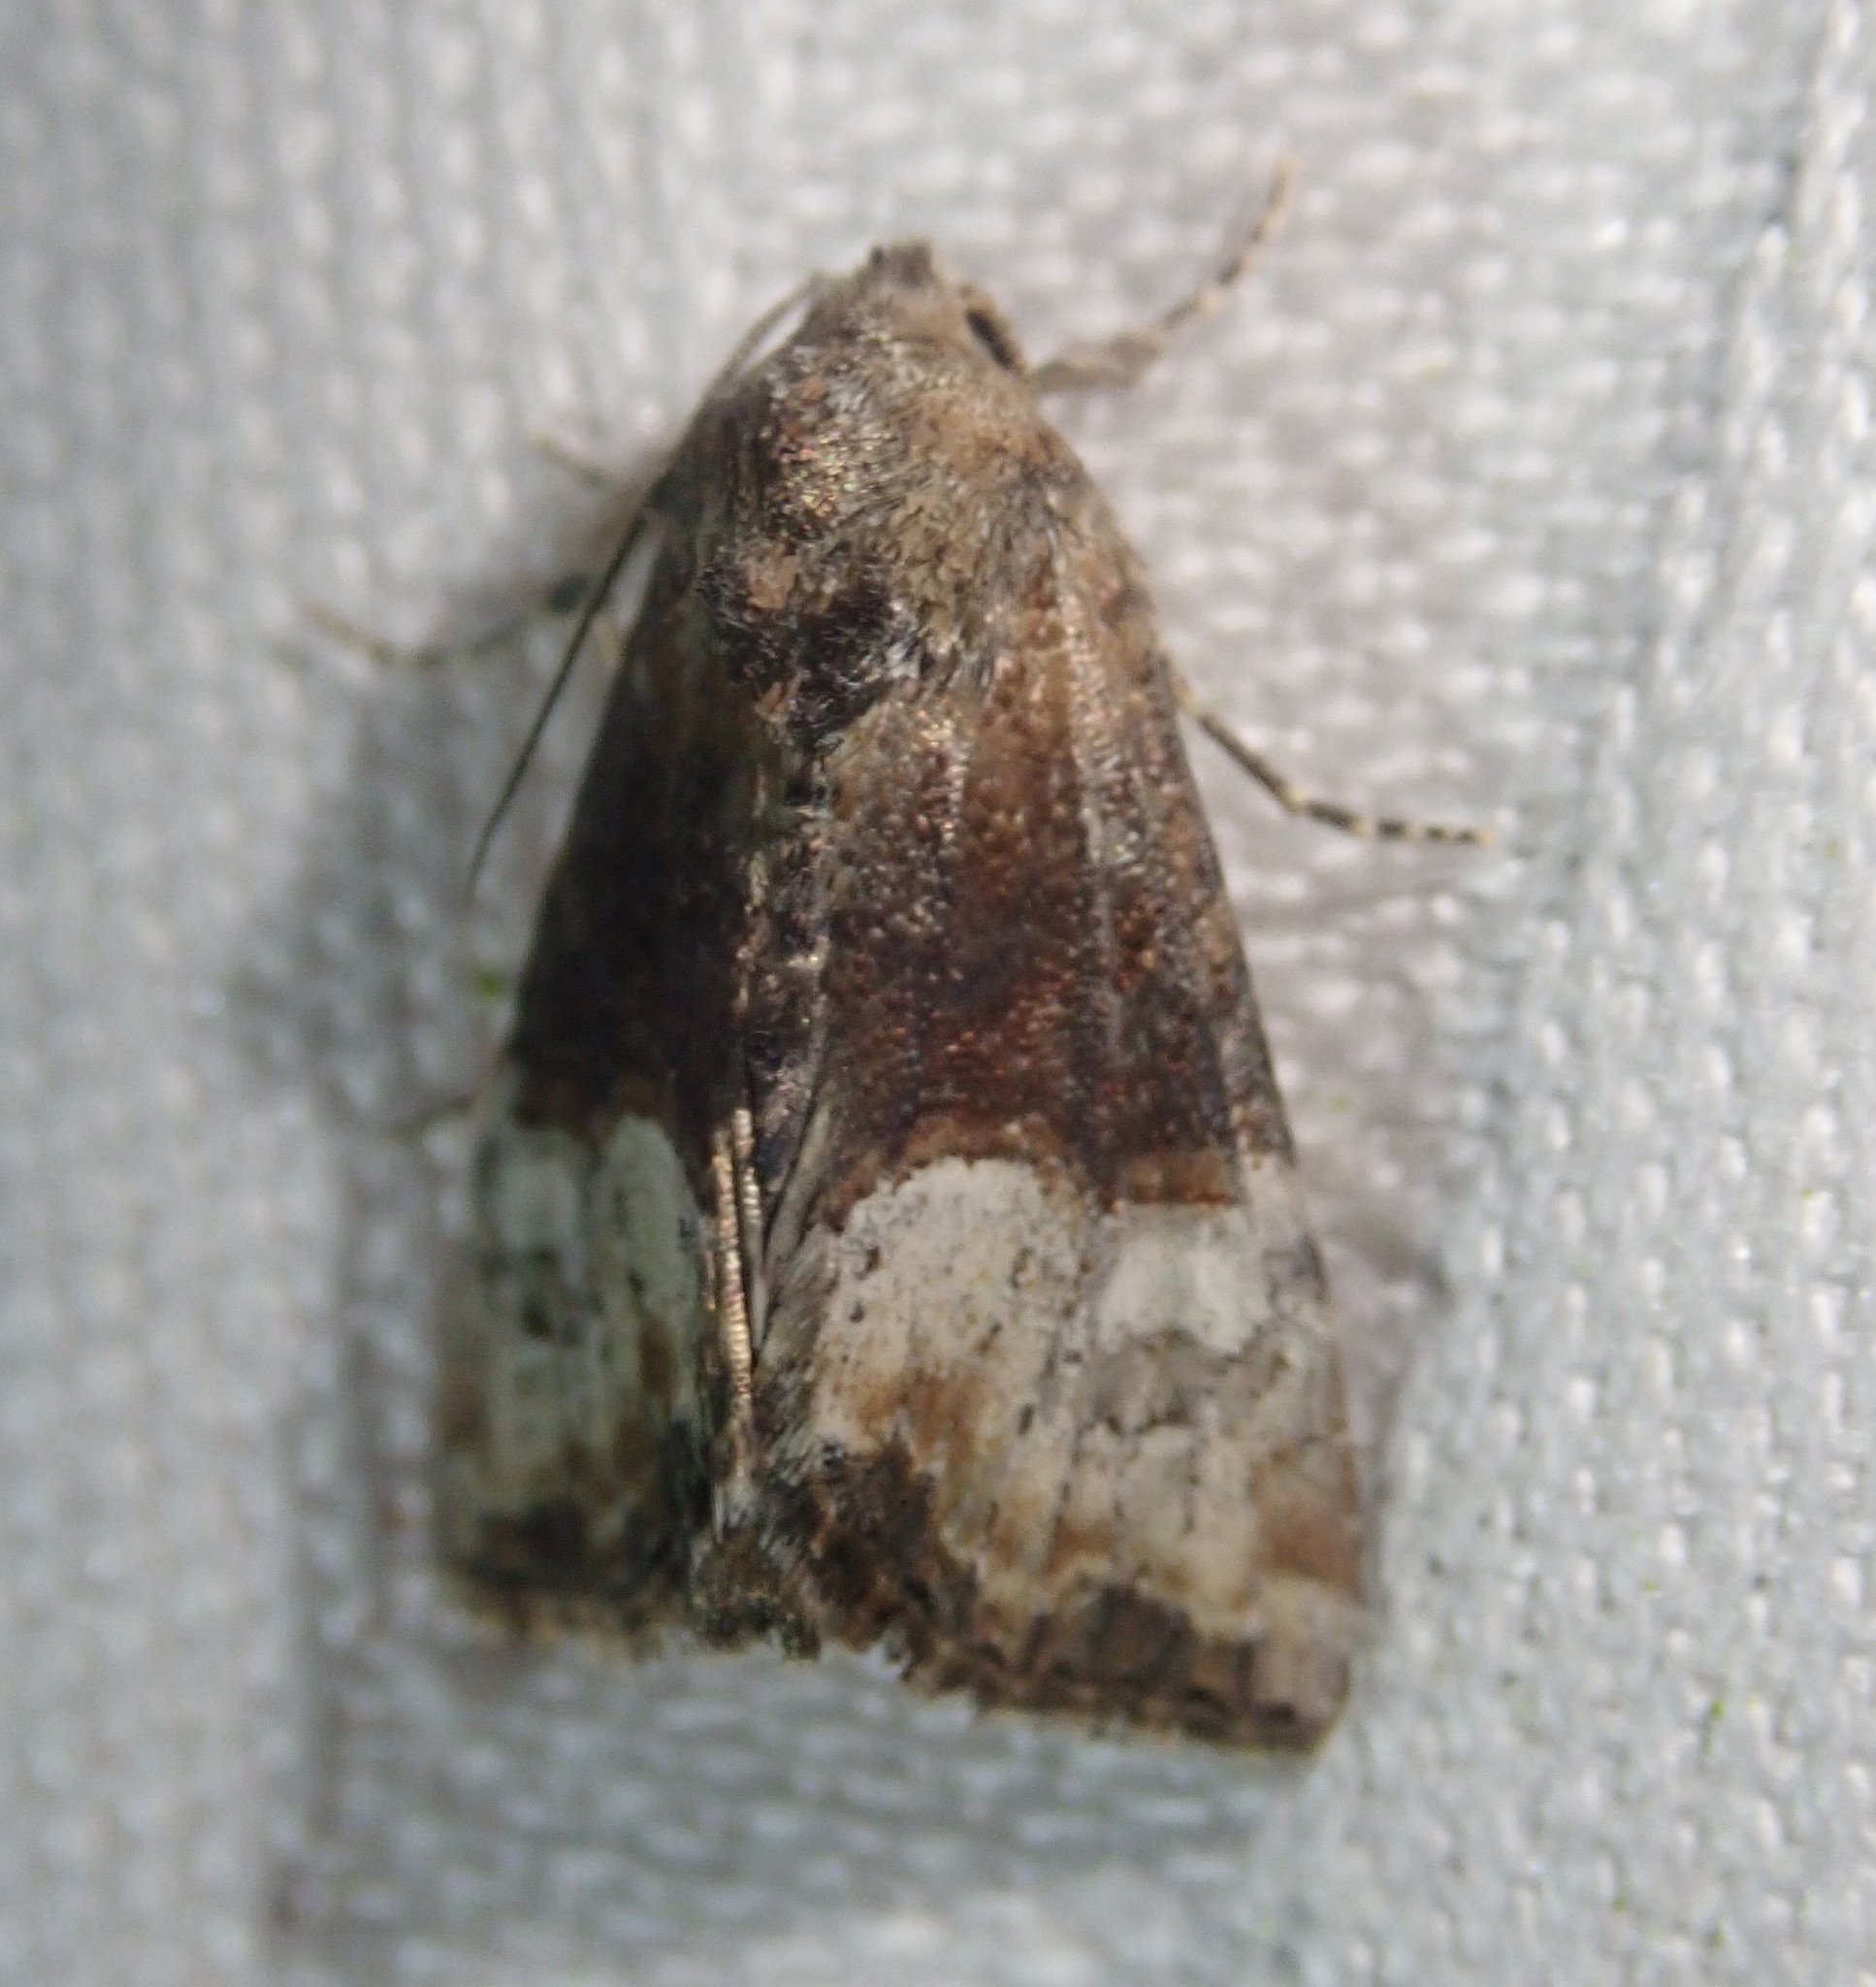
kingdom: Animalia
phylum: Arthropoda
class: Insecta
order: Lepidoptera
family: Noctuidae
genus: Mesoligia
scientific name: Mesoligia furuncula
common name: Cloaked minor
